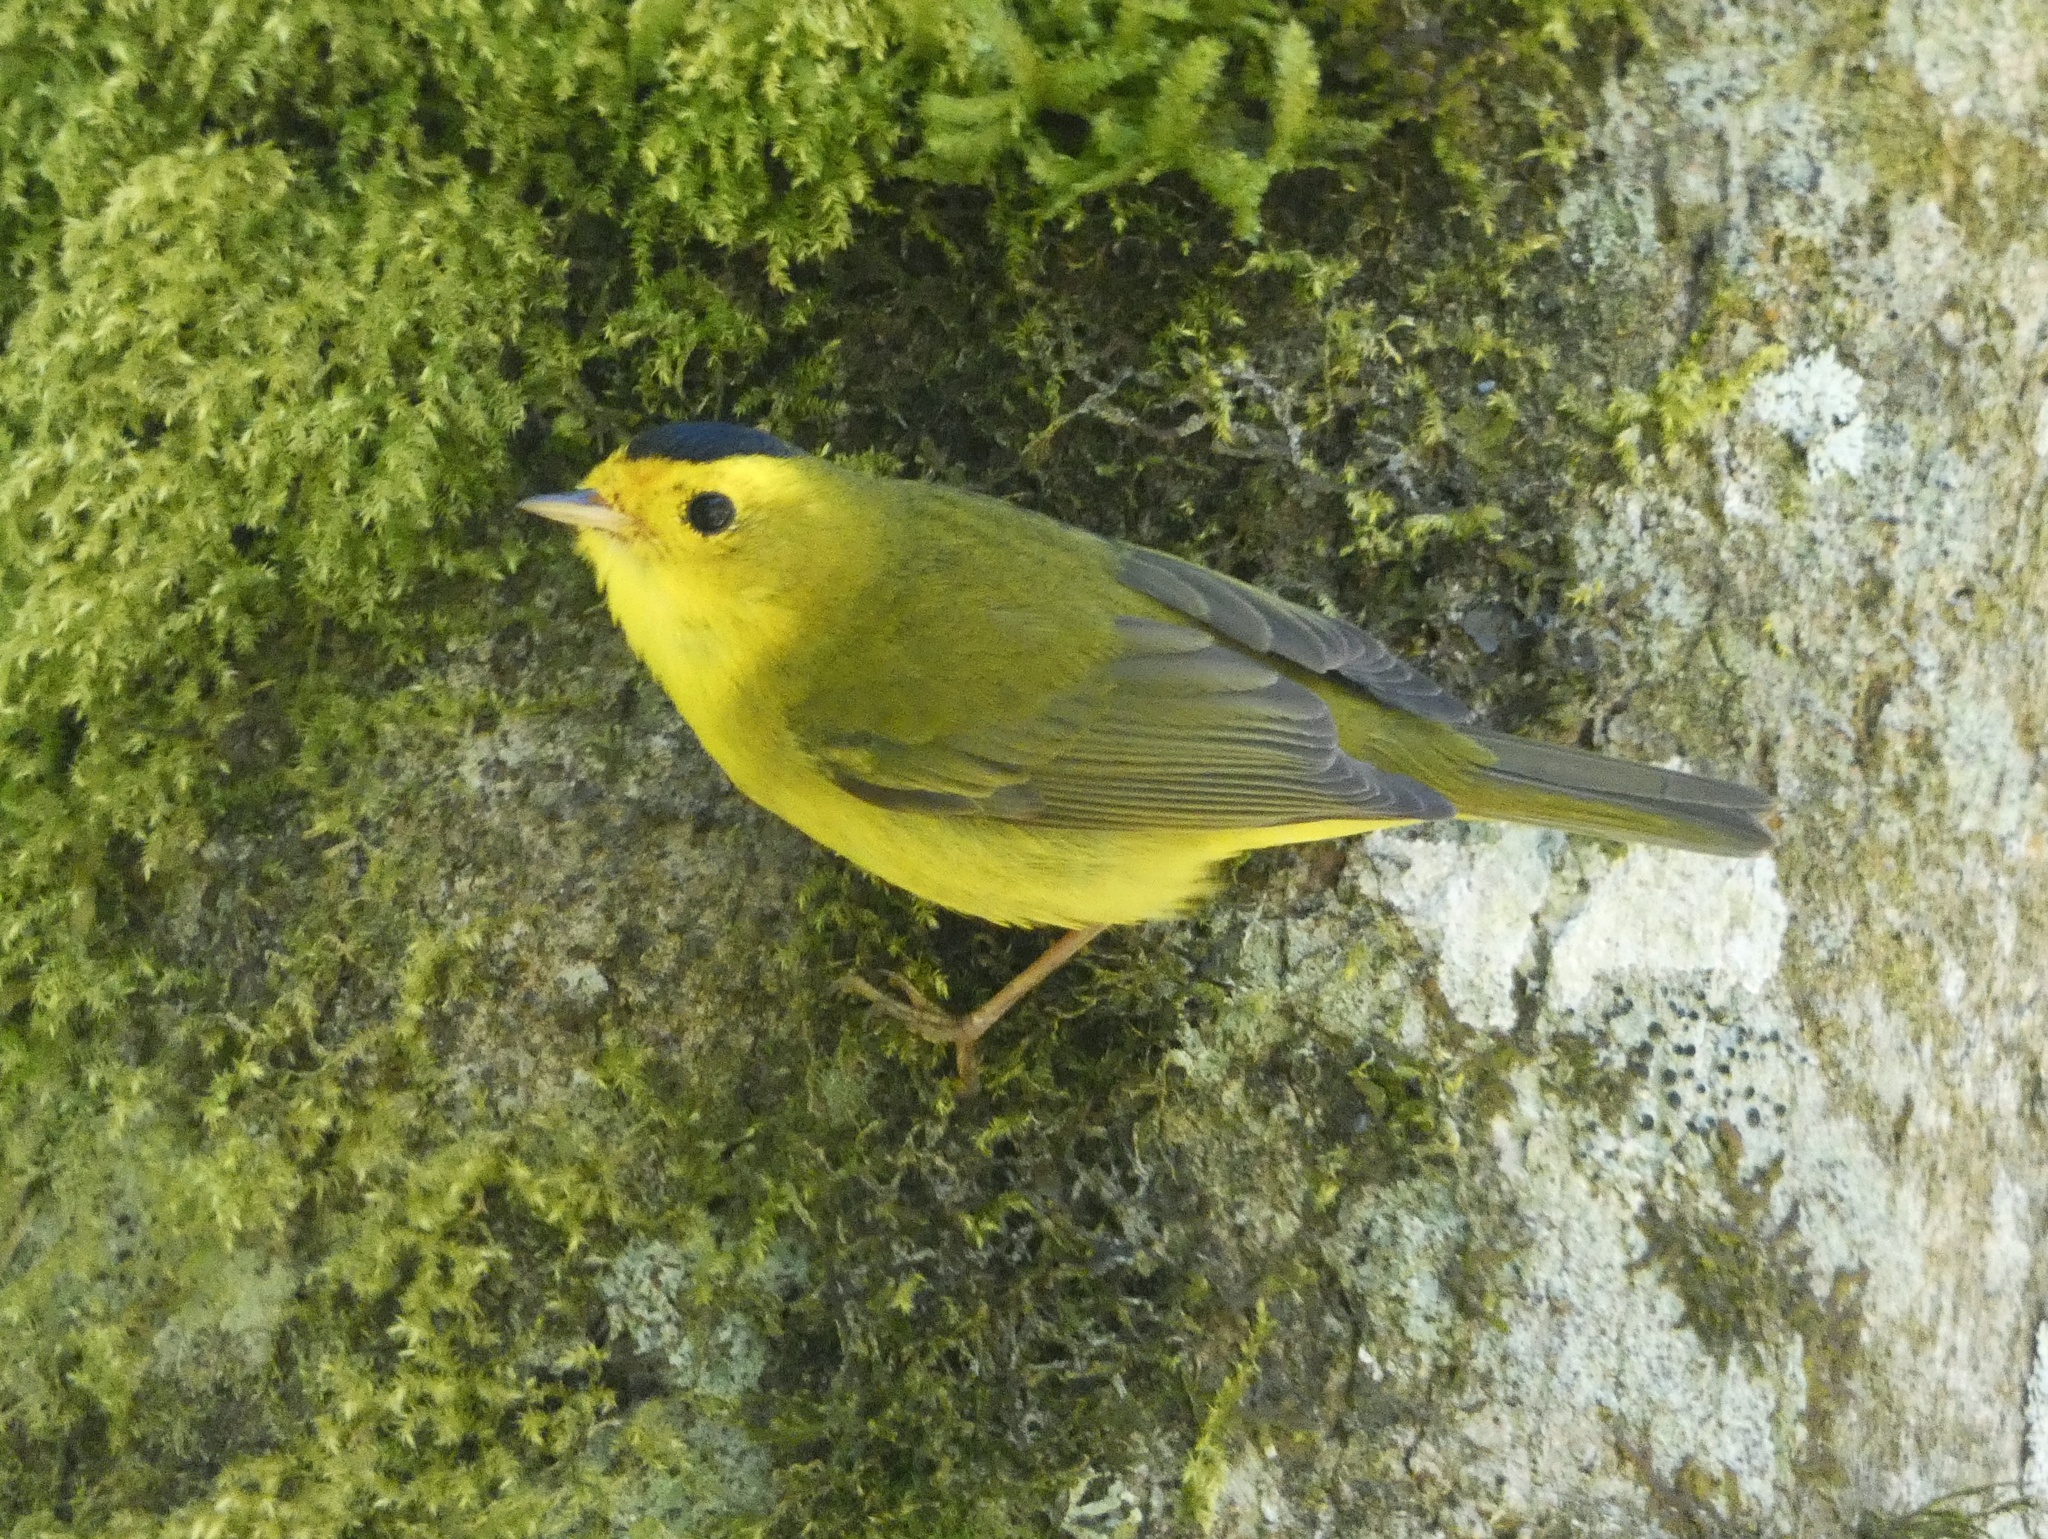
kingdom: Animalia
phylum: Chordata
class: Aves
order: Passeriformes
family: Parulidae
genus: Cardellina
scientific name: Cardellina pusilla
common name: Wilson's warbler
